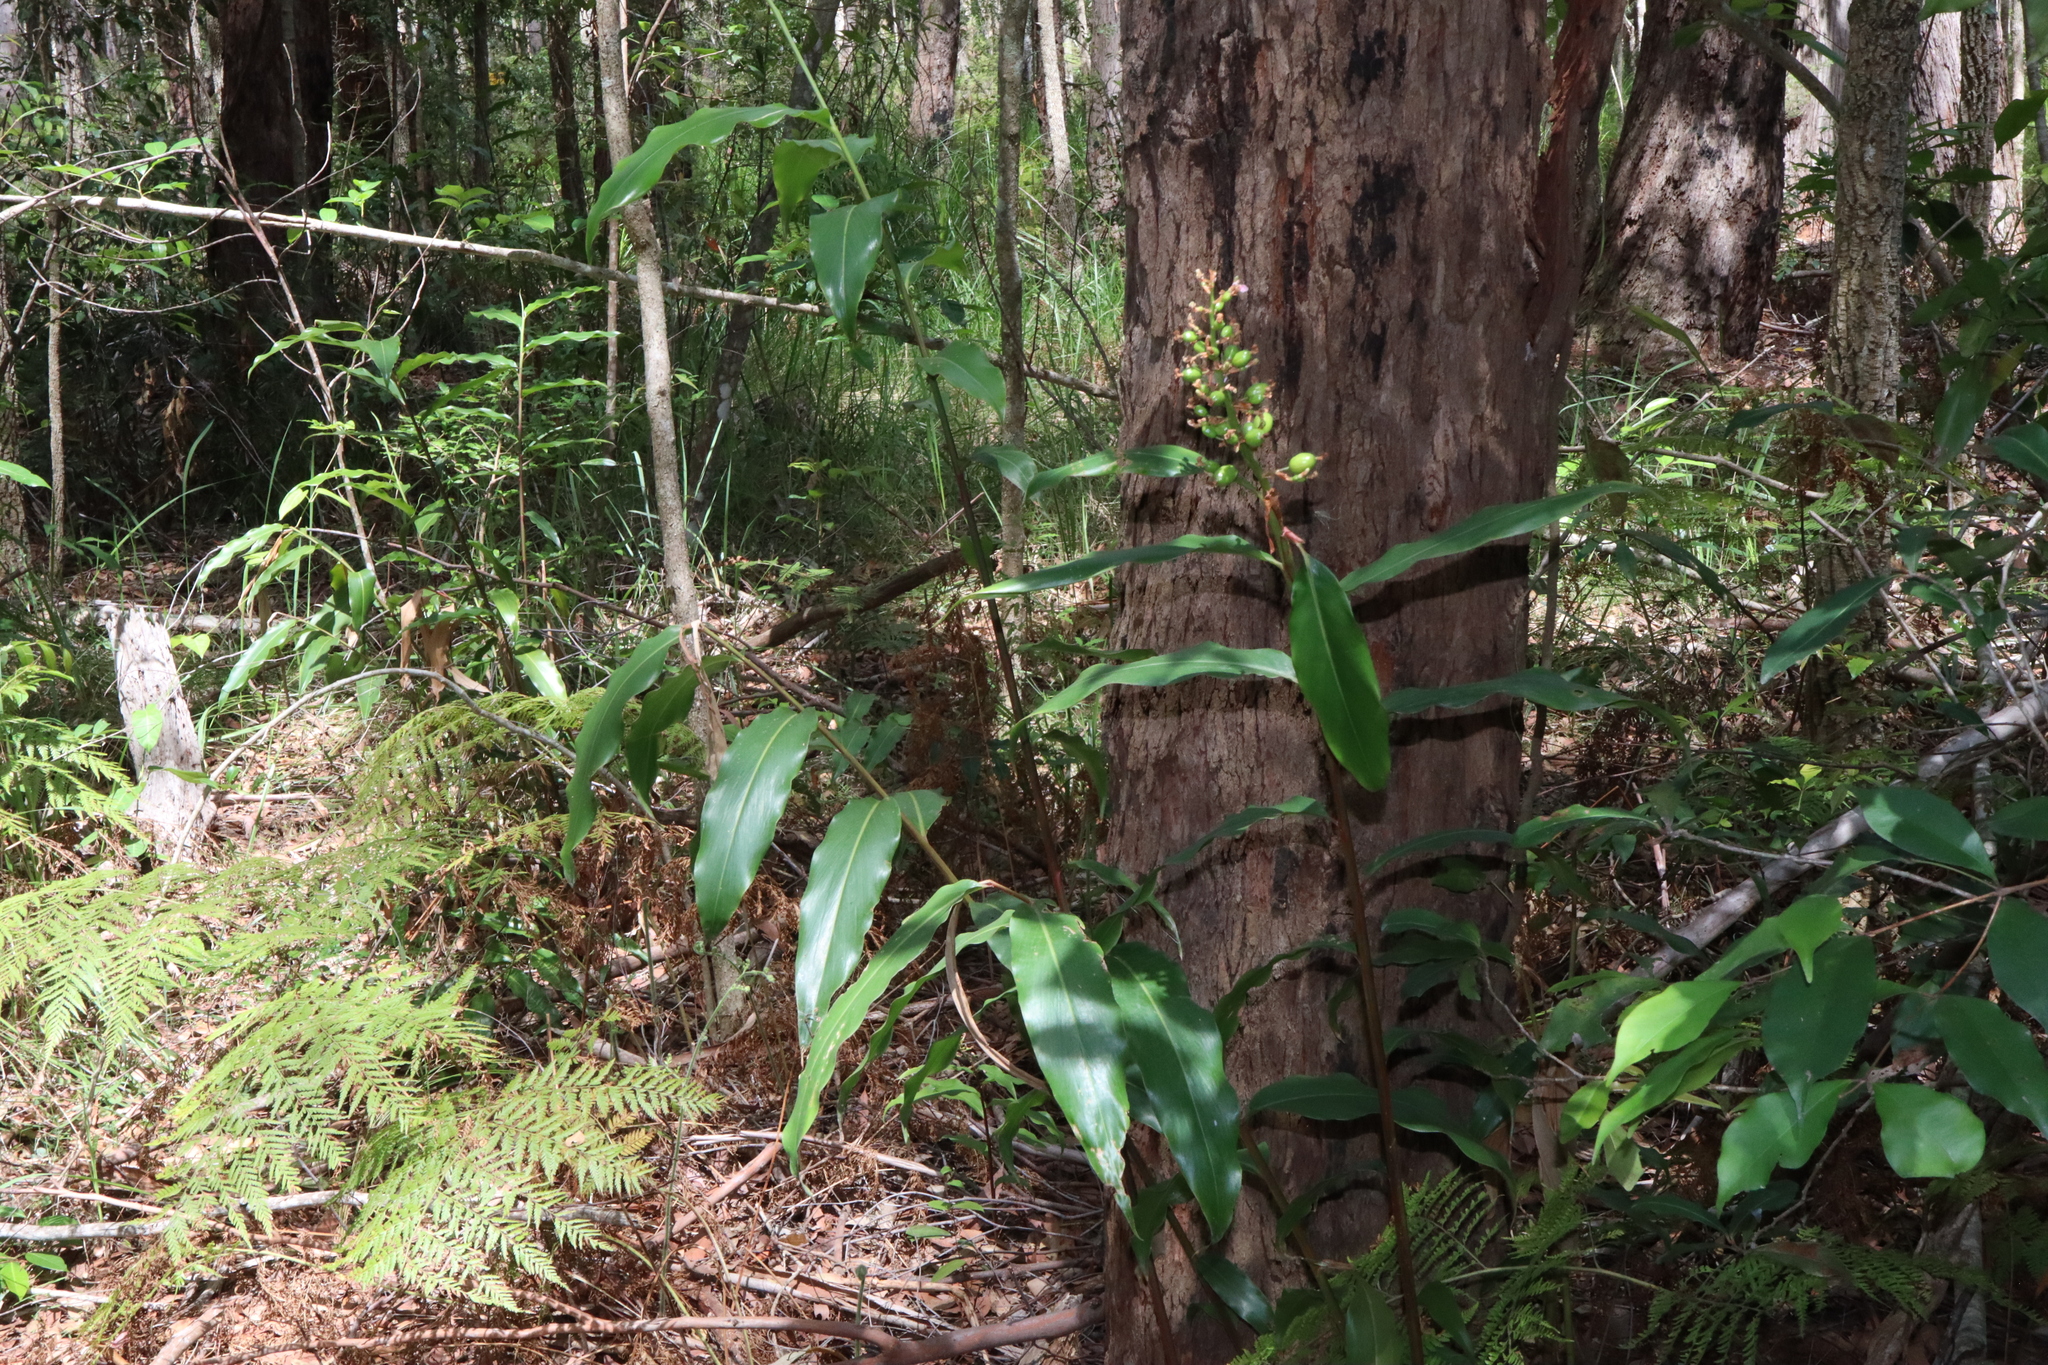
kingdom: Plantae
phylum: Tracheophyta
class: Liliopsida
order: Zingiberales
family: Zingiberaceae
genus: Alpinia
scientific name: Alpinia arundelliana
